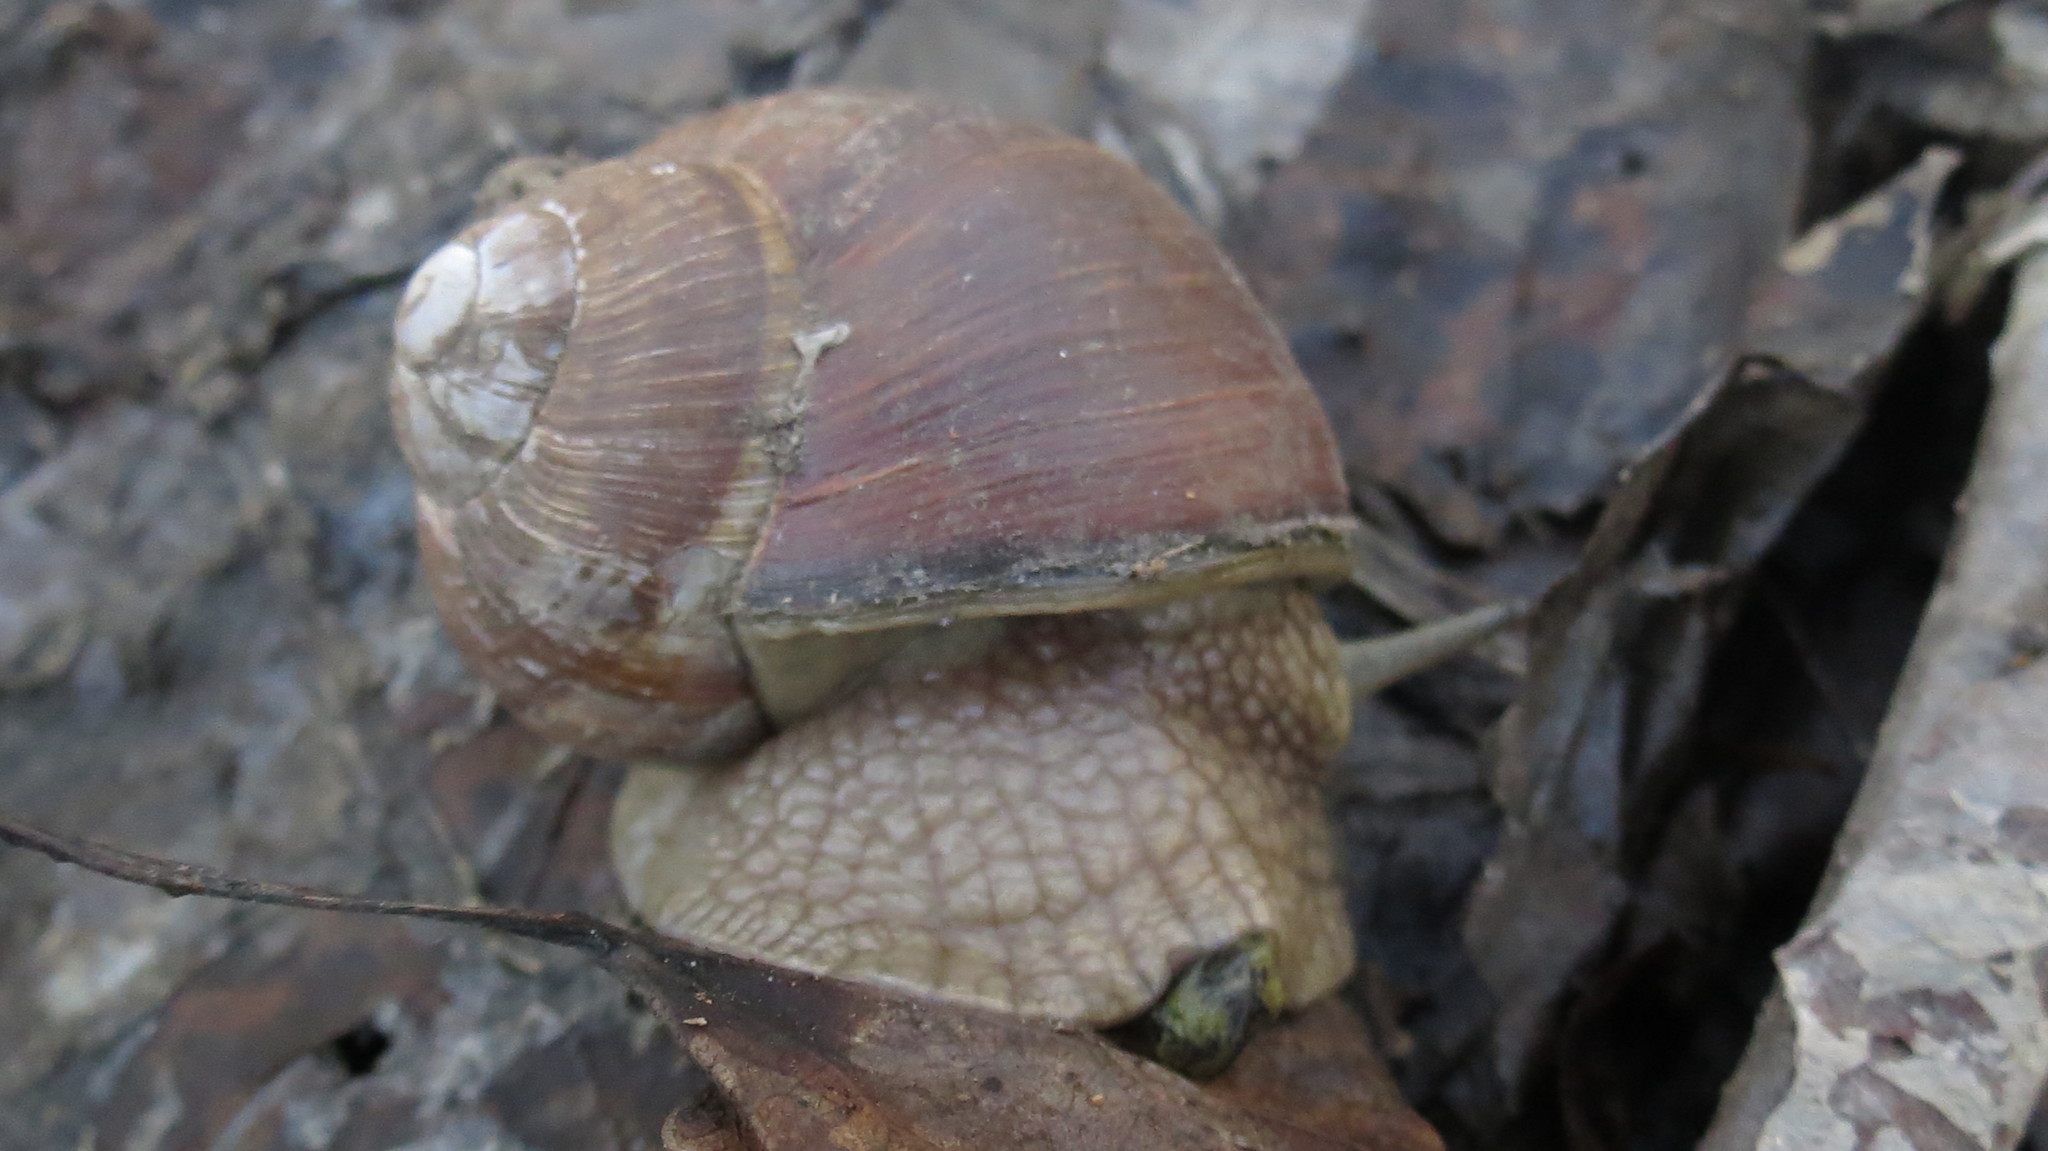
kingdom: Animalia
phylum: Mollusca
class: Gastropoda
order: Stylommatophora
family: Helicidae
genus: Helix
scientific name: Helix pomatia
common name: Roman snail
